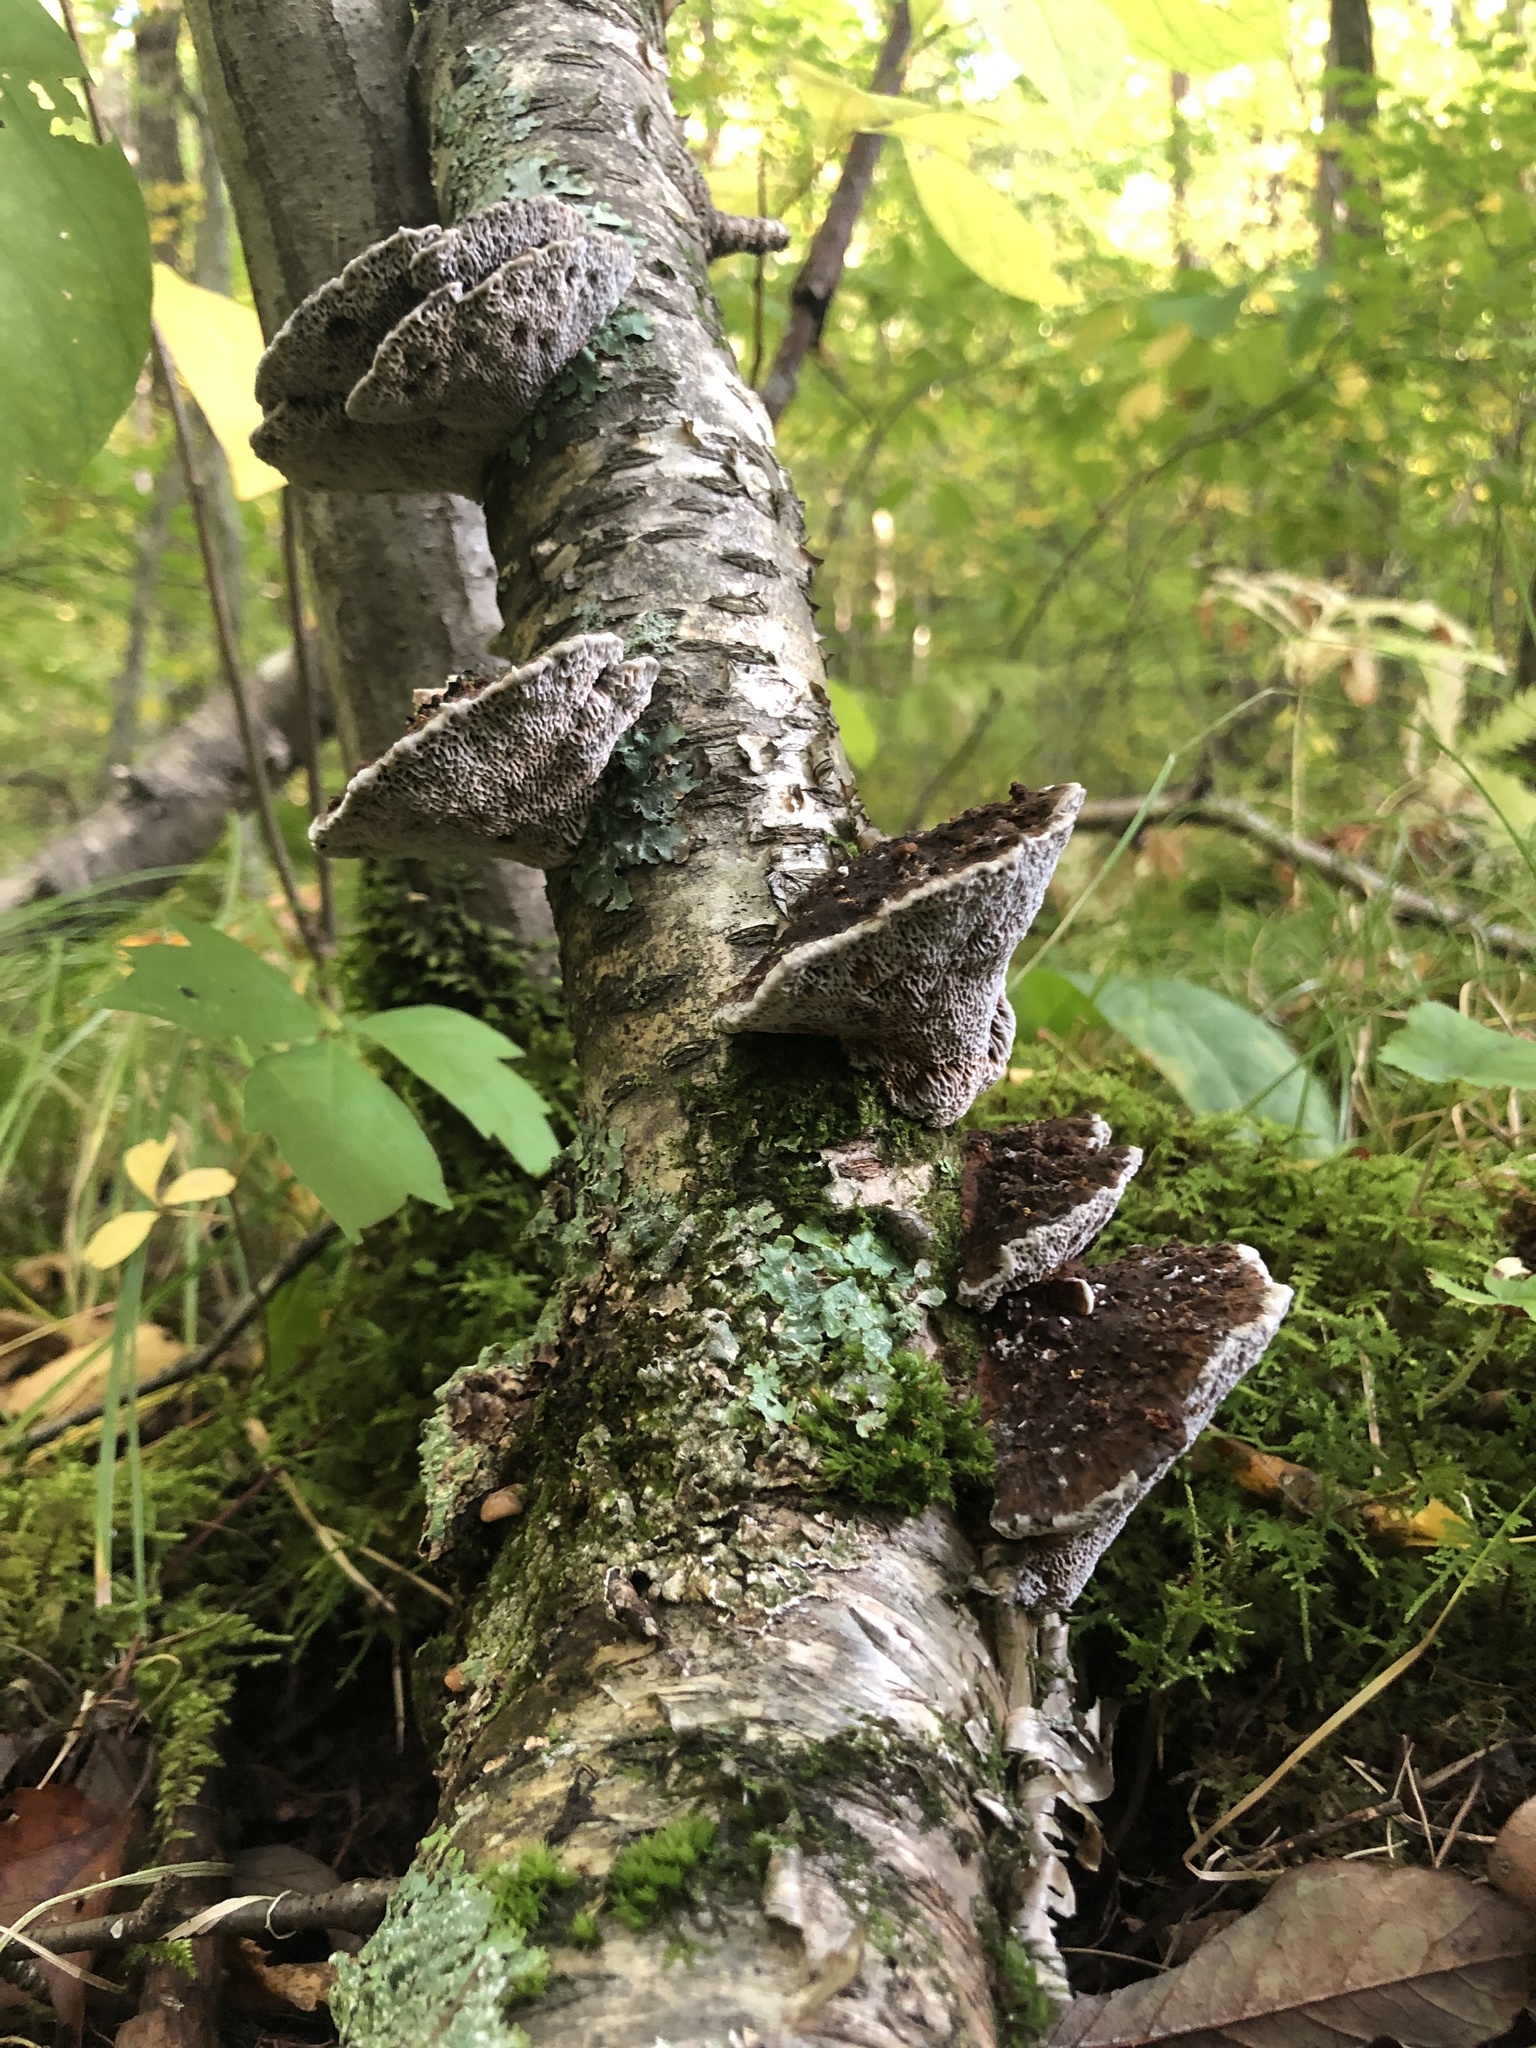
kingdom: Fungi
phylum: Basidiomycota
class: Agaricomycetes
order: Polyporales
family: Polyporaceae
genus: Daedaleopsis
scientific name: Daedaleopsis confragosa
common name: Blushing bracket
